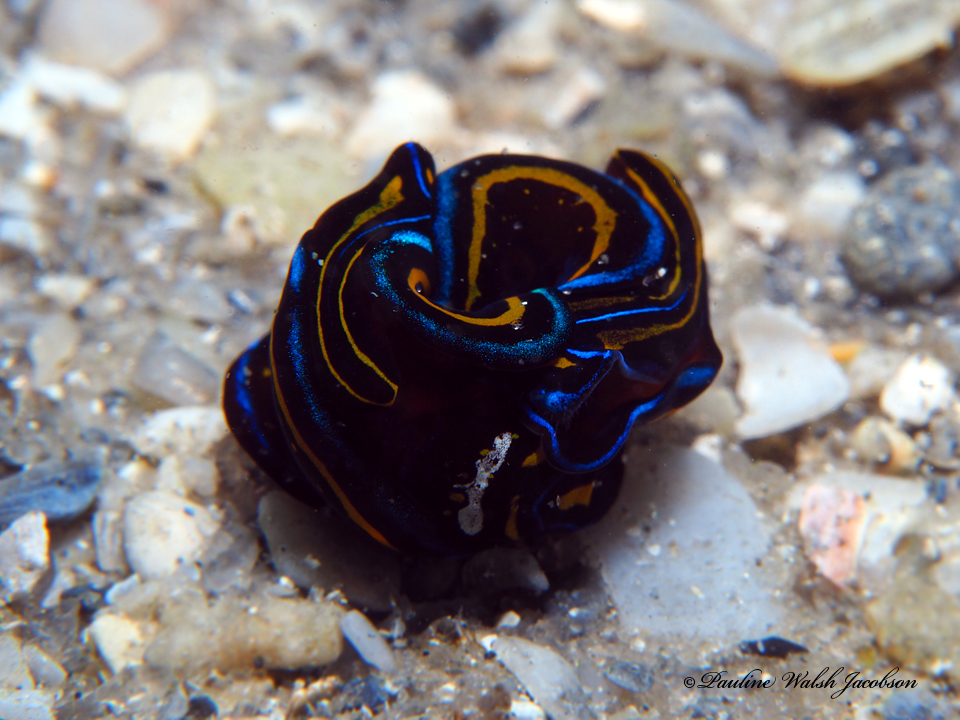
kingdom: Animalia
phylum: Mollusca
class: Gastropoda
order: Cephalaspidea
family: Aglajidae
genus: Chelidonura
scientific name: Chelidonura hirundinina
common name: Leech headshield slug
